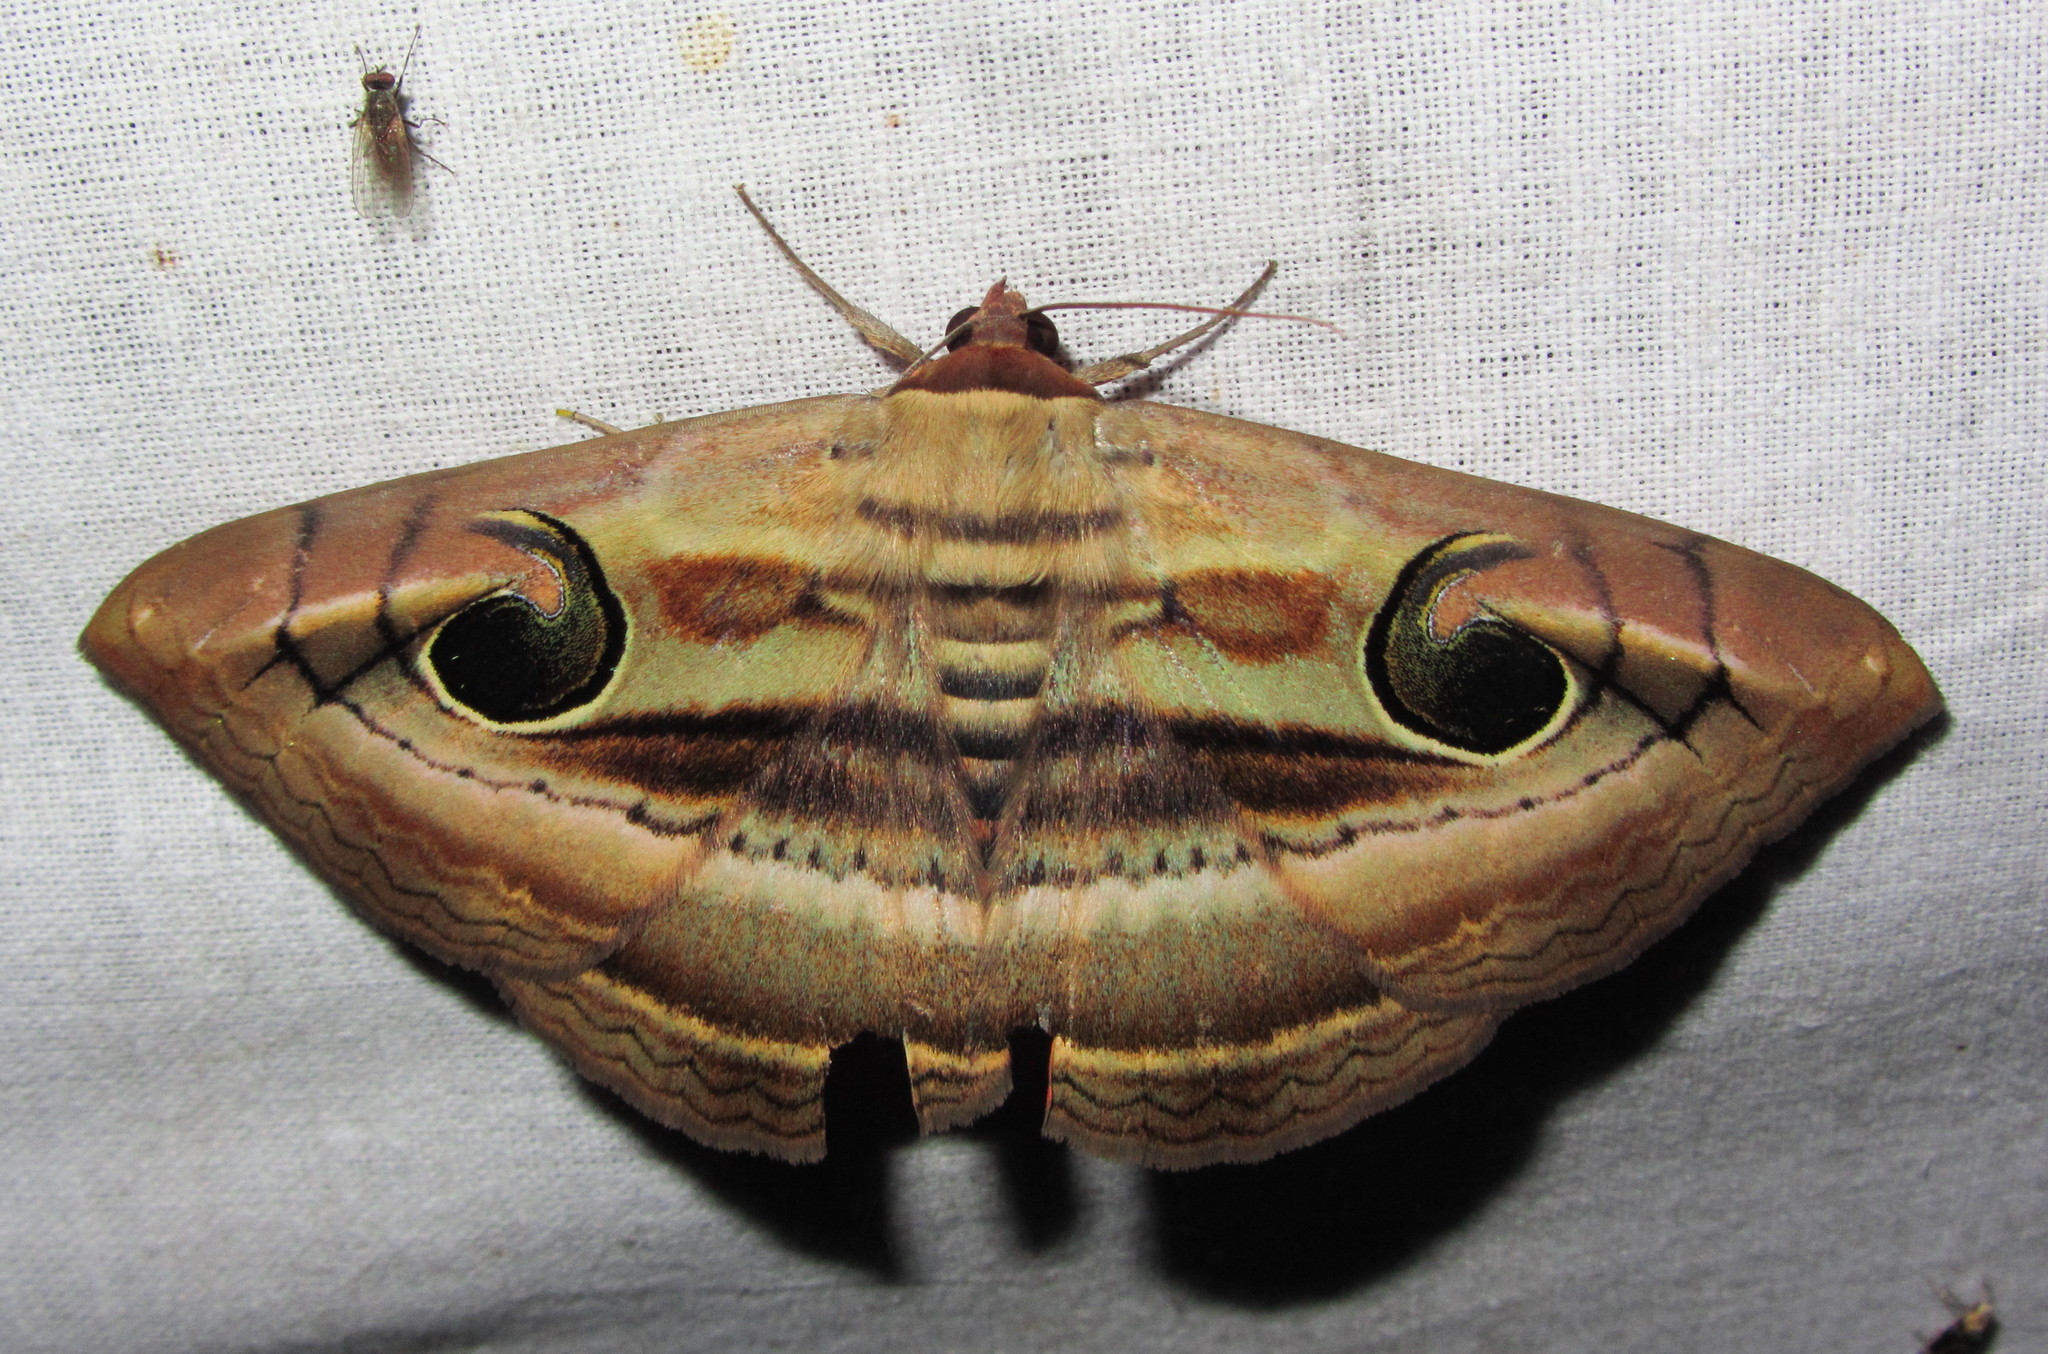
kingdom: Animalia
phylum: Arthropoda
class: Insecta
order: Lepidoptera
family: Erebidae
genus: Spirama
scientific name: Spirama
